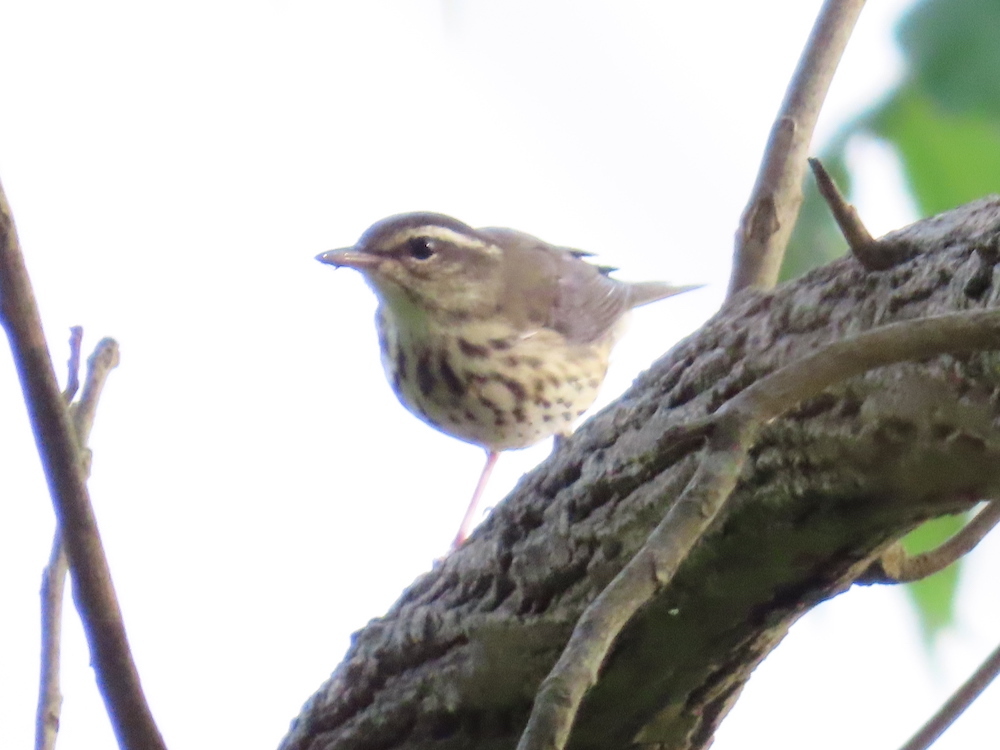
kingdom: Animalia
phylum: Chordata
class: Aves
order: Passeriformes
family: Parulidae
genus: Parkesia
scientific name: Parkesia motacilla
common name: Louisiana waterthrush
